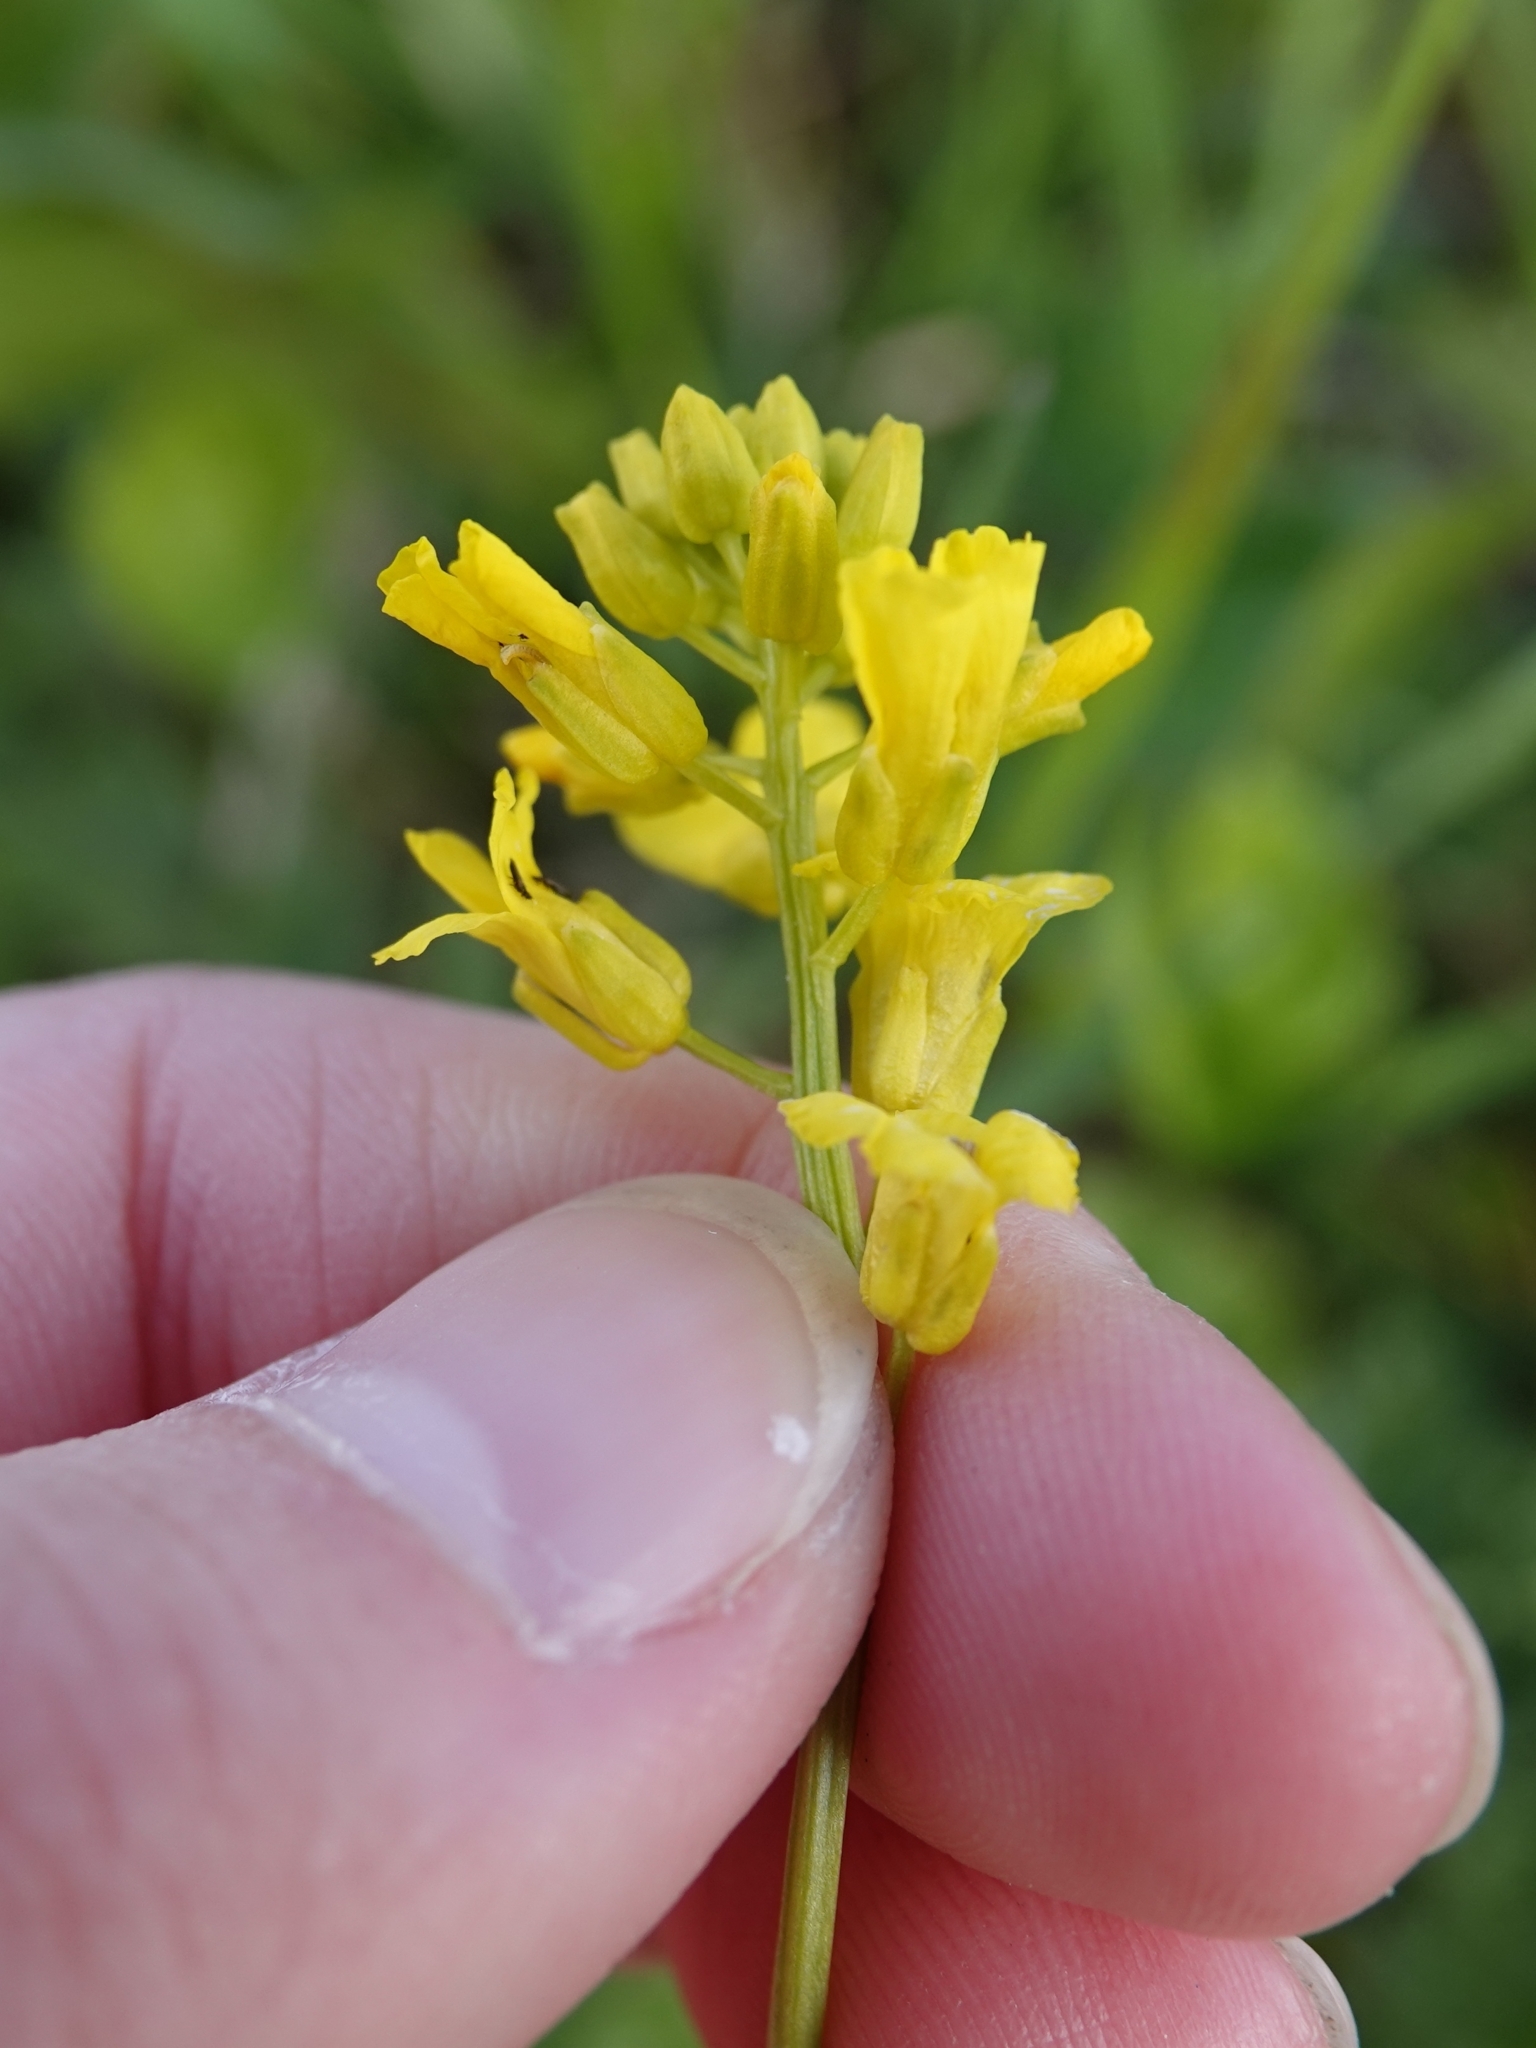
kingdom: Plantae
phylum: Tracheophyta
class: Magnoliopsida
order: Brassicales
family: Brassicaceae
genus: Barbarea
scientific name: Barbarea vulgaris
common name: Cressy-greens
